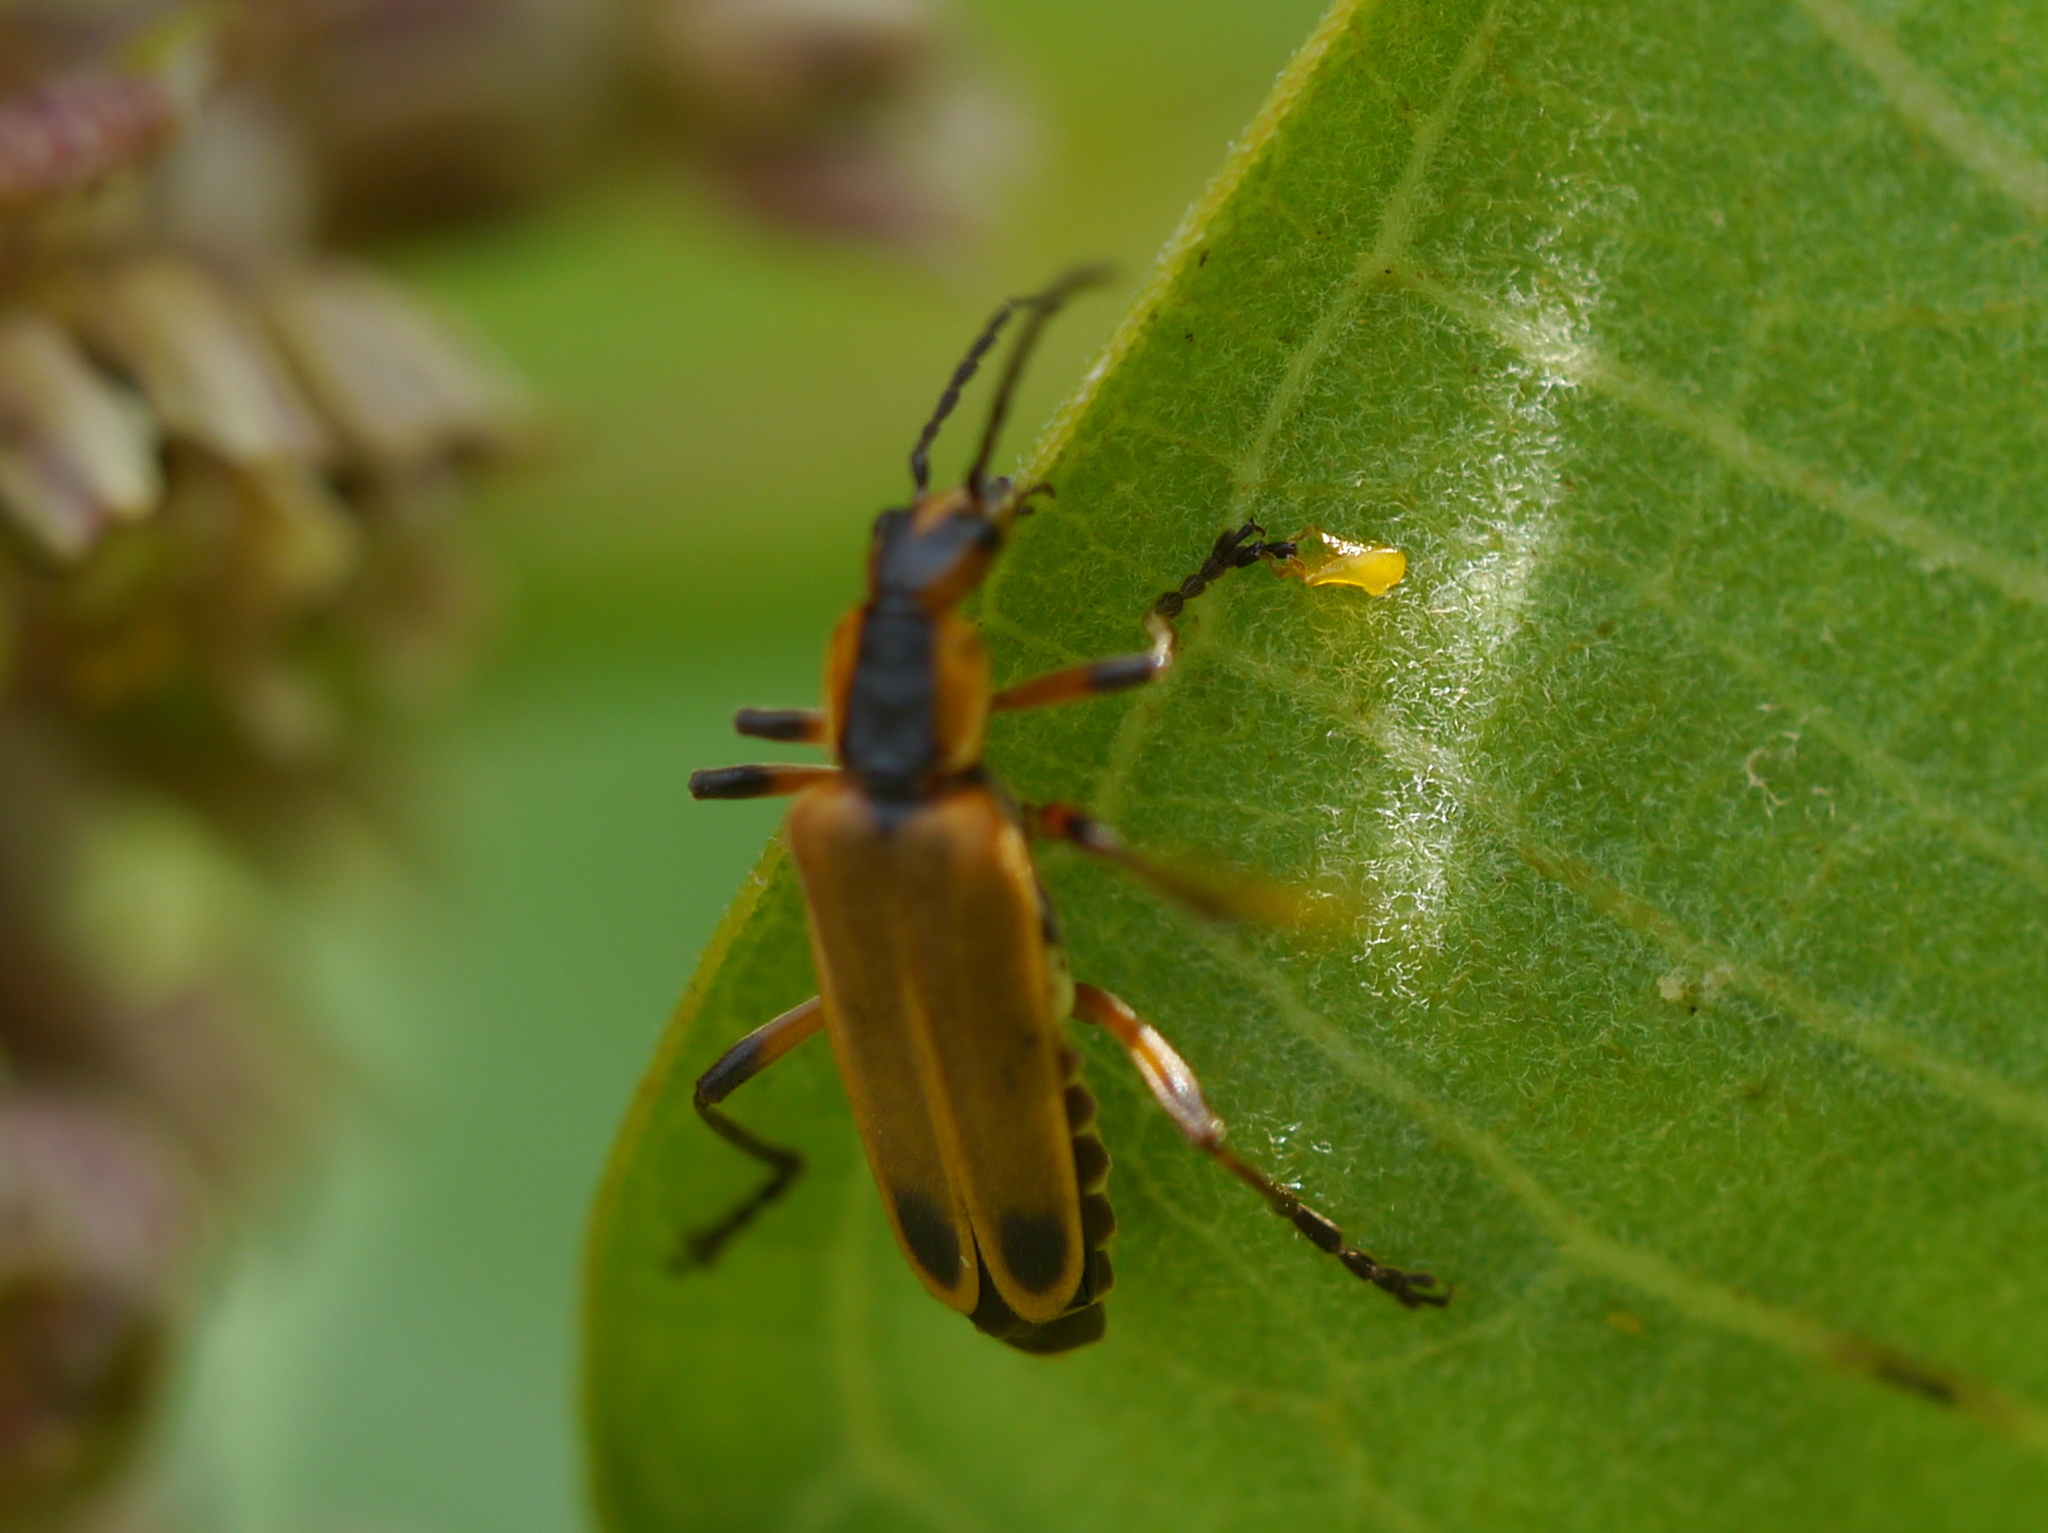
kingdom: Animalia
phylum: Arthropoda
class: Insecta
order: Coleoptera
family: Cantharidae
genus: Chauliognathus
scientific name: Chauliognathus marginatus
